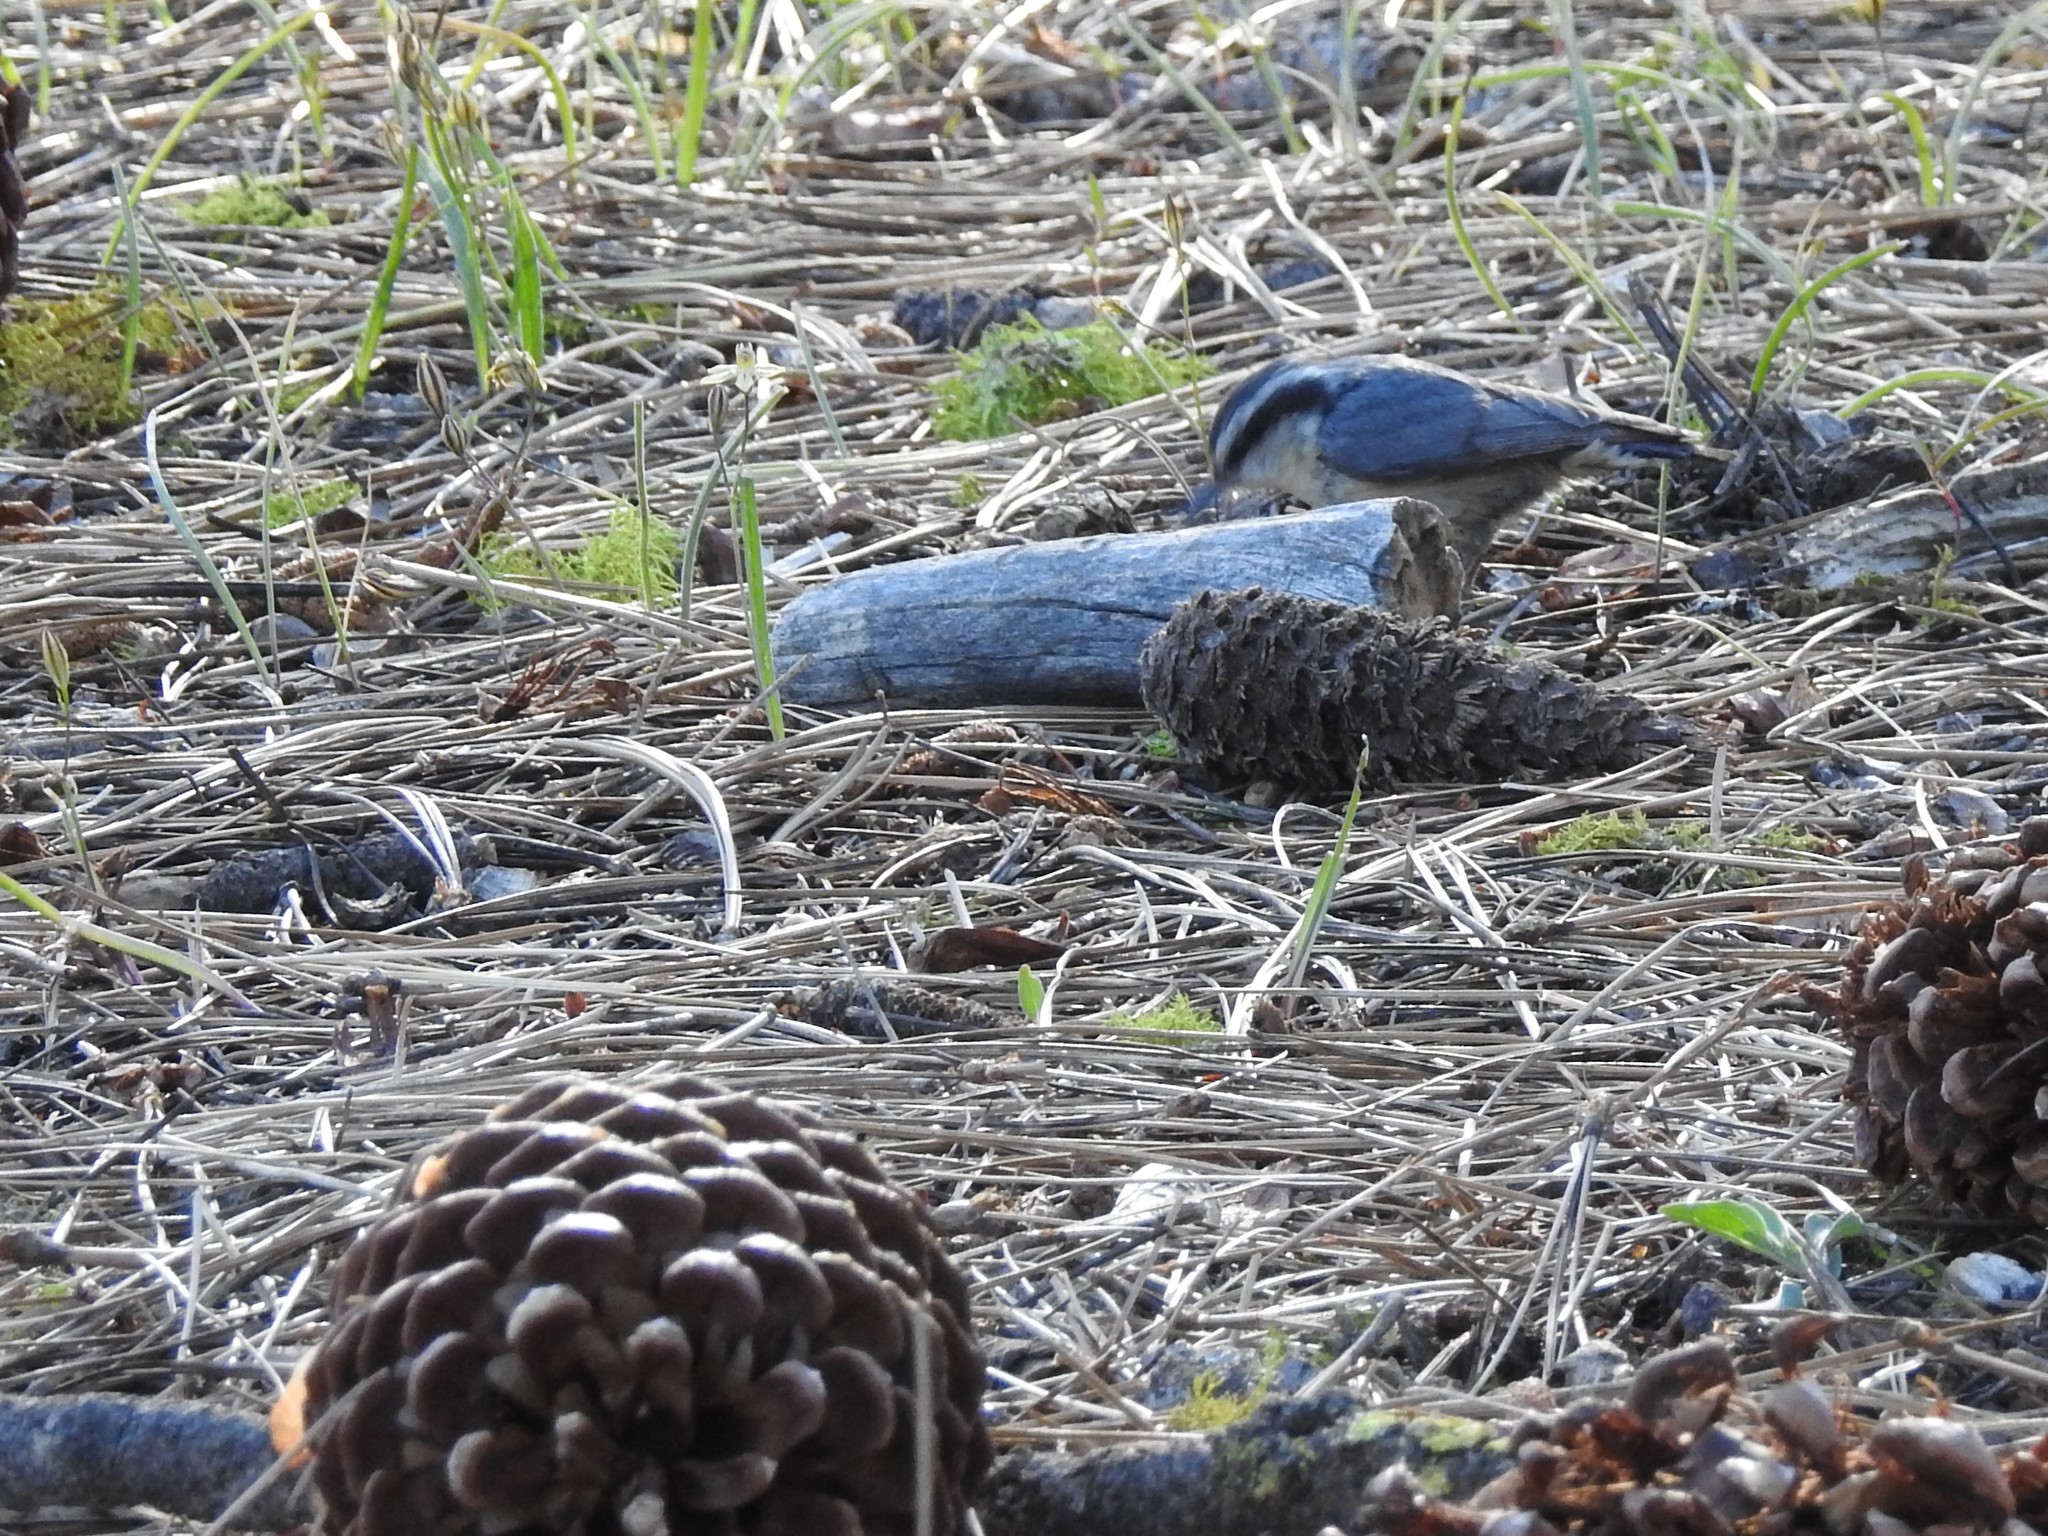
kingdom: Animalia
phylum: Chordata
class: Aves
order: Passeriformes
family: Sittidae
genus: Sitta
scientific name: Sitta canadensis
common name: Red-breasted nuthatch
